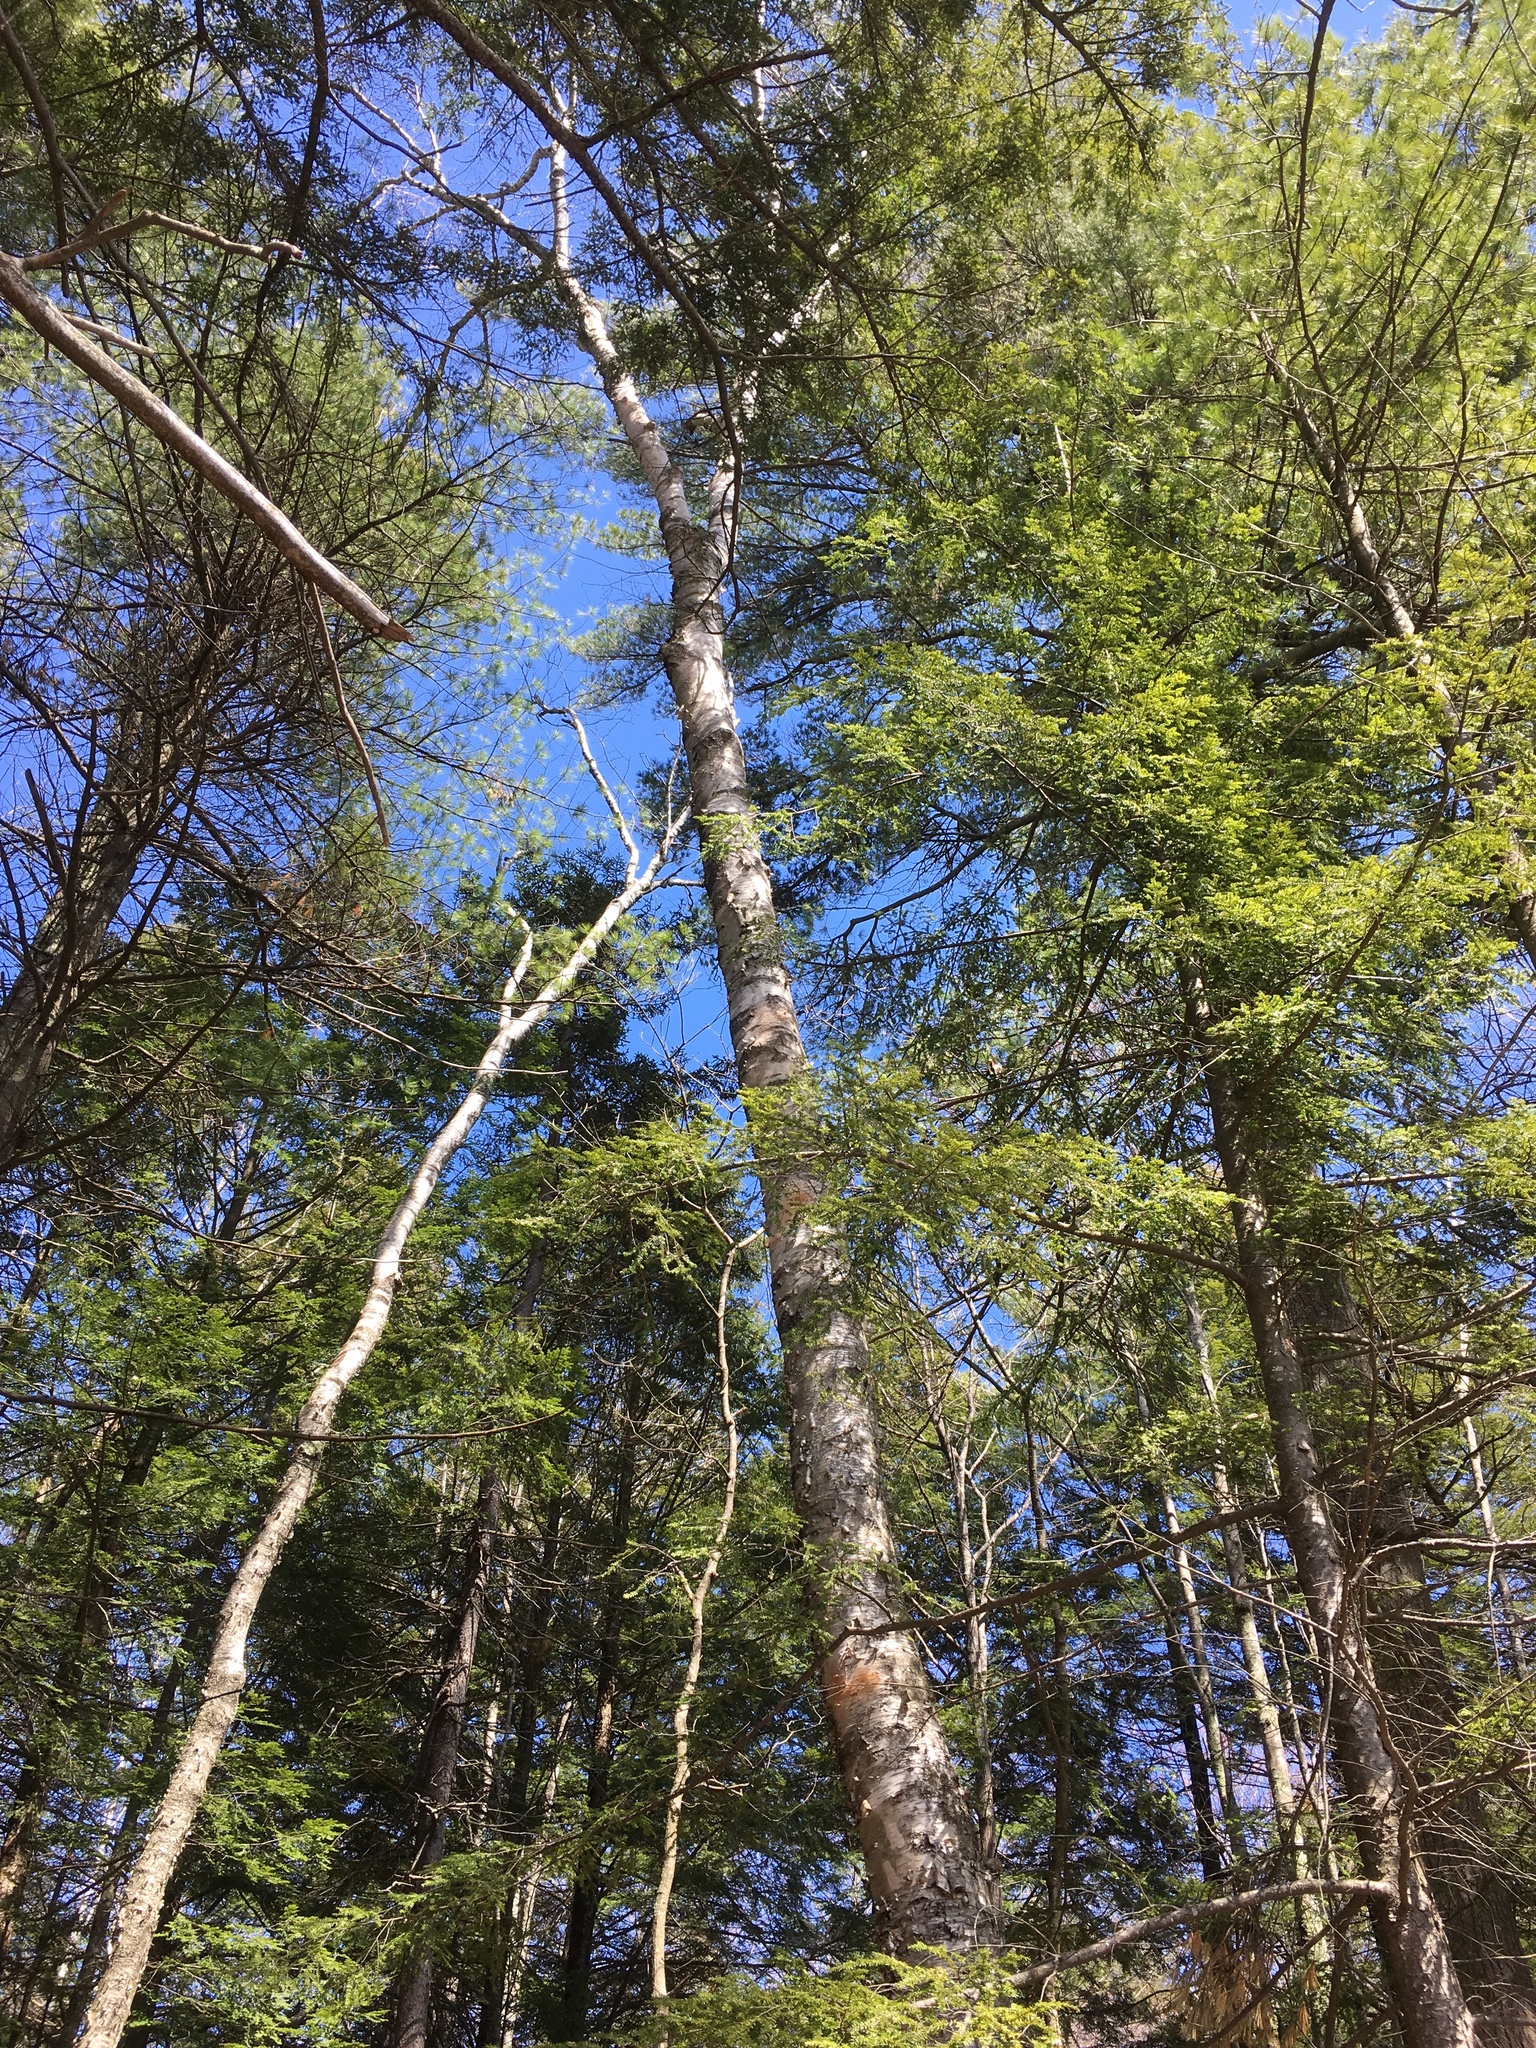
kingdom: Plantae
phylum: Tracheophyta
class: Magnoliopsida
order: Fagales
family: Betulaceae
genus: Betula
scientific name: Betula papyrifera
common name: Paper birch
